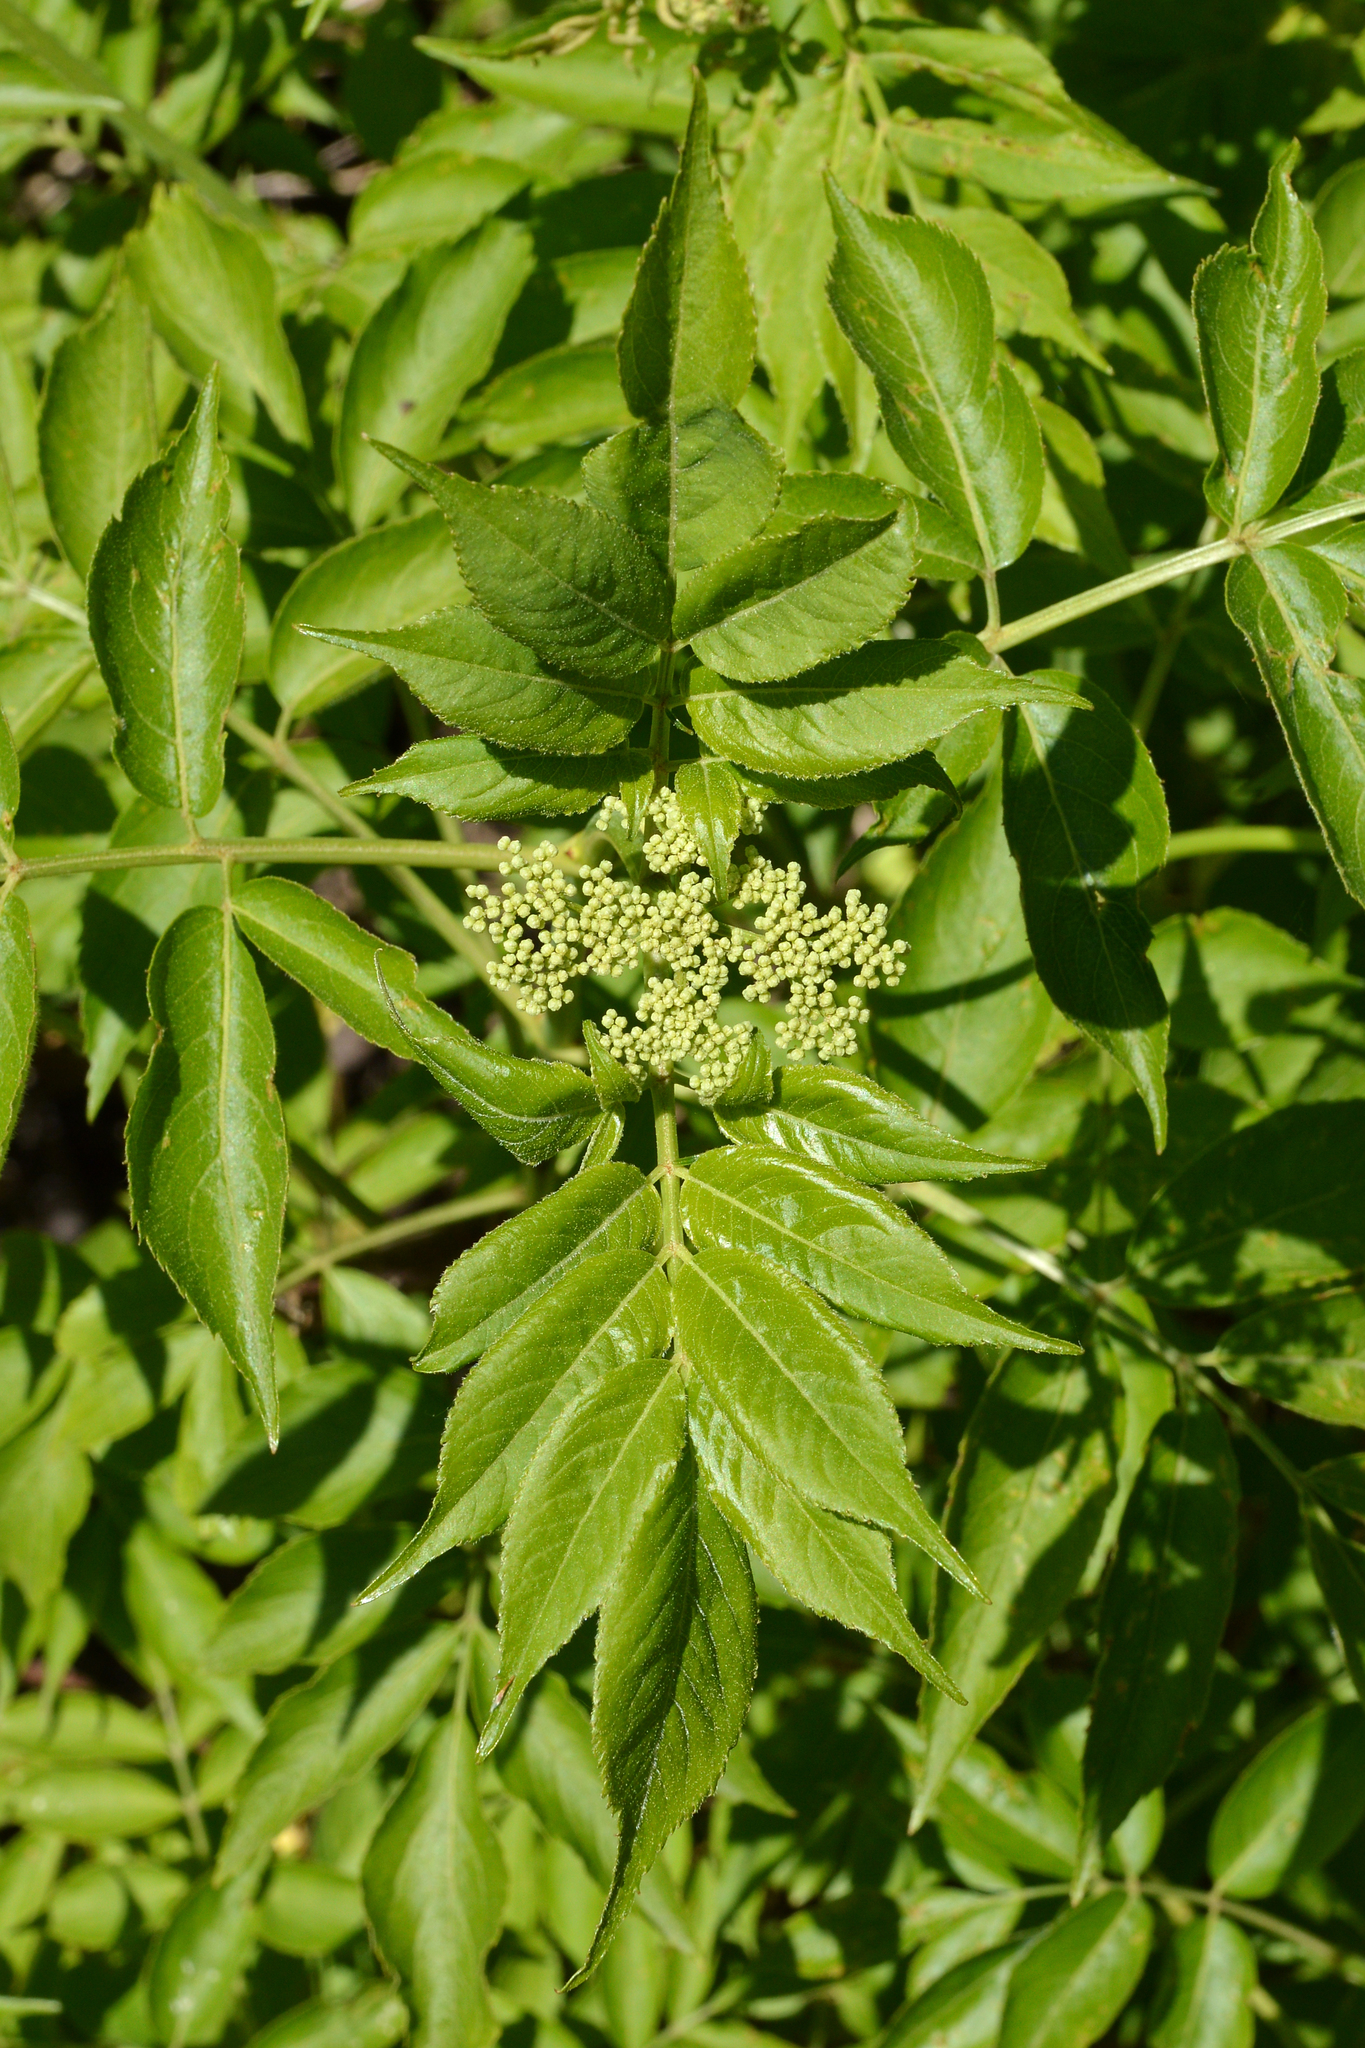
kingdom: Plantae
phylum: Tracheophyta
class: Magnoliopsida
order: Dipsacales
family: Viburnaceae
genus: Sambucus
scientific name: Sambucus canadensis
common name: American elder
